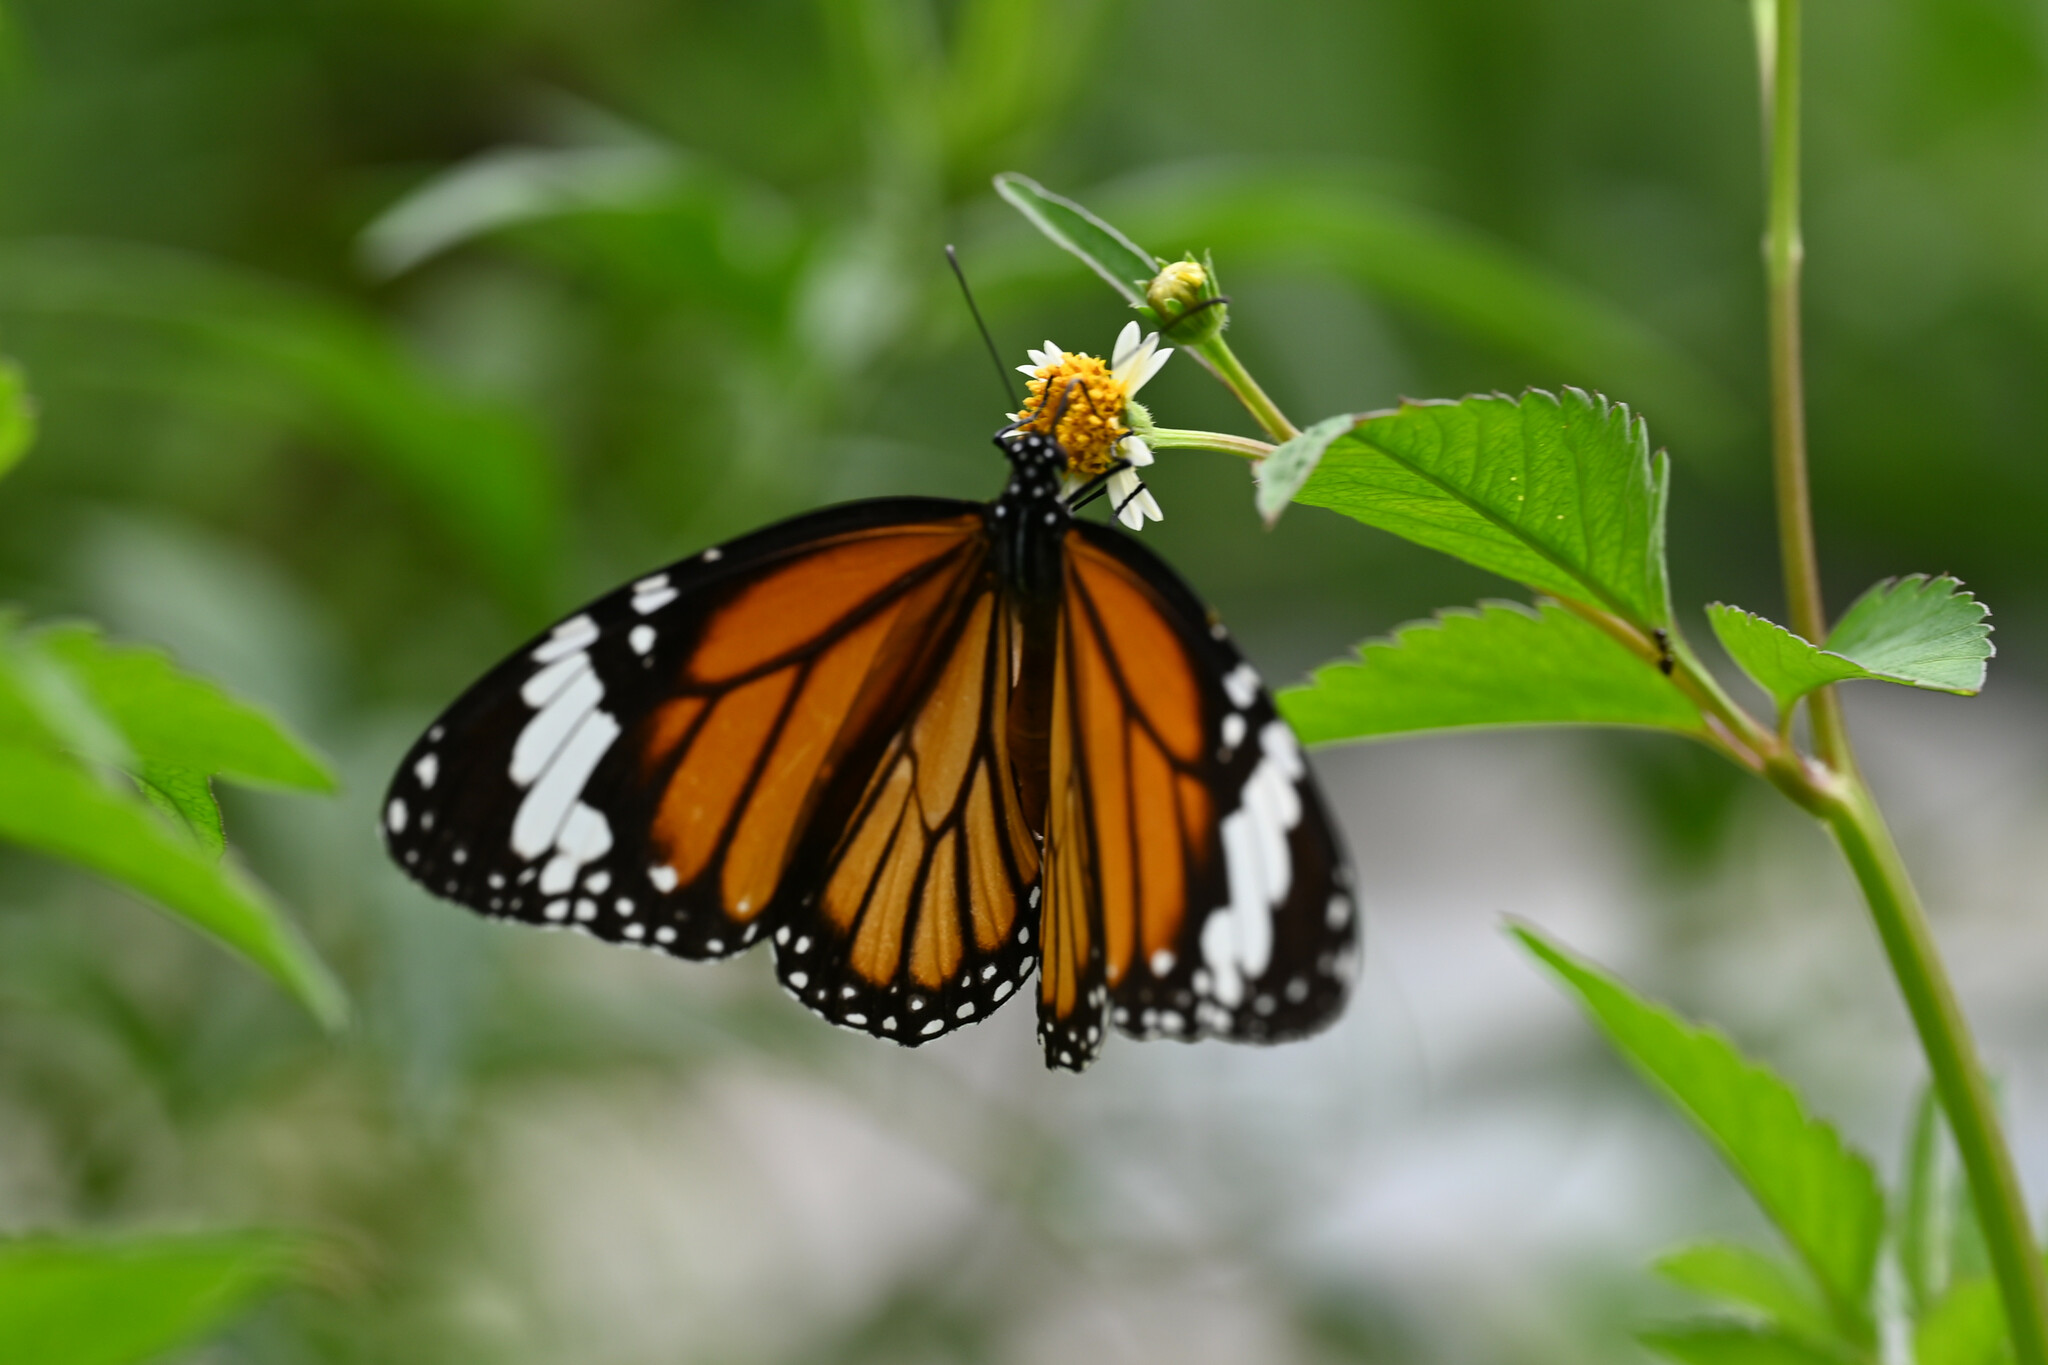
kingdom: Animalia
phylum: Arthropoda
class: Insecta
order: Lepidoptera
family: Nymphalidae
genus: Danaus
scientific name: Danaus genutia
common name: Common tiger butterfly
